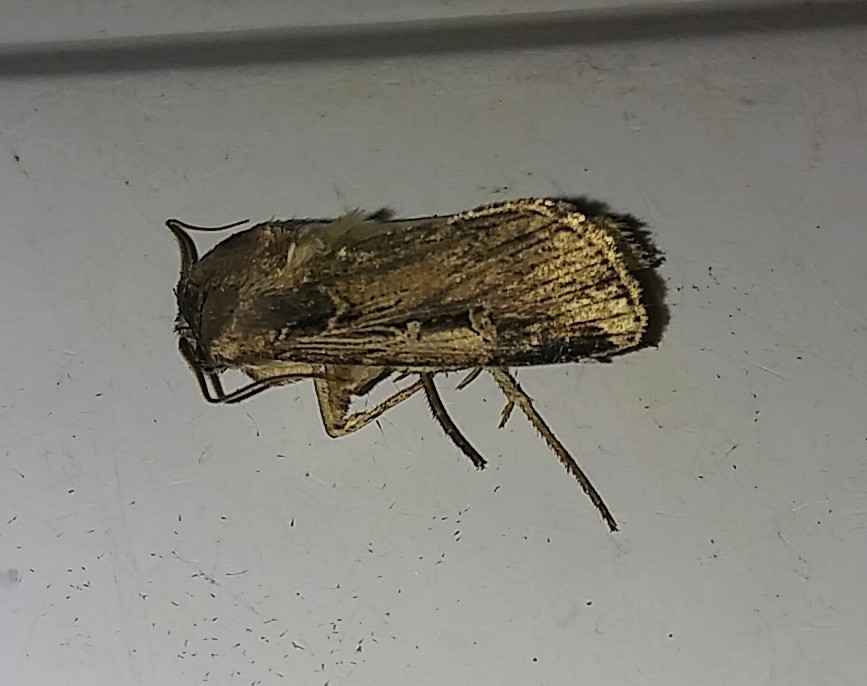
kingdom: Animalia
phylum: Arthropoda
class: Insecta
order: Lepidoptera
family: Noctuidae
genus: Feltia
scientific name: Feltia subterranea
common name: Granulate cutworm
